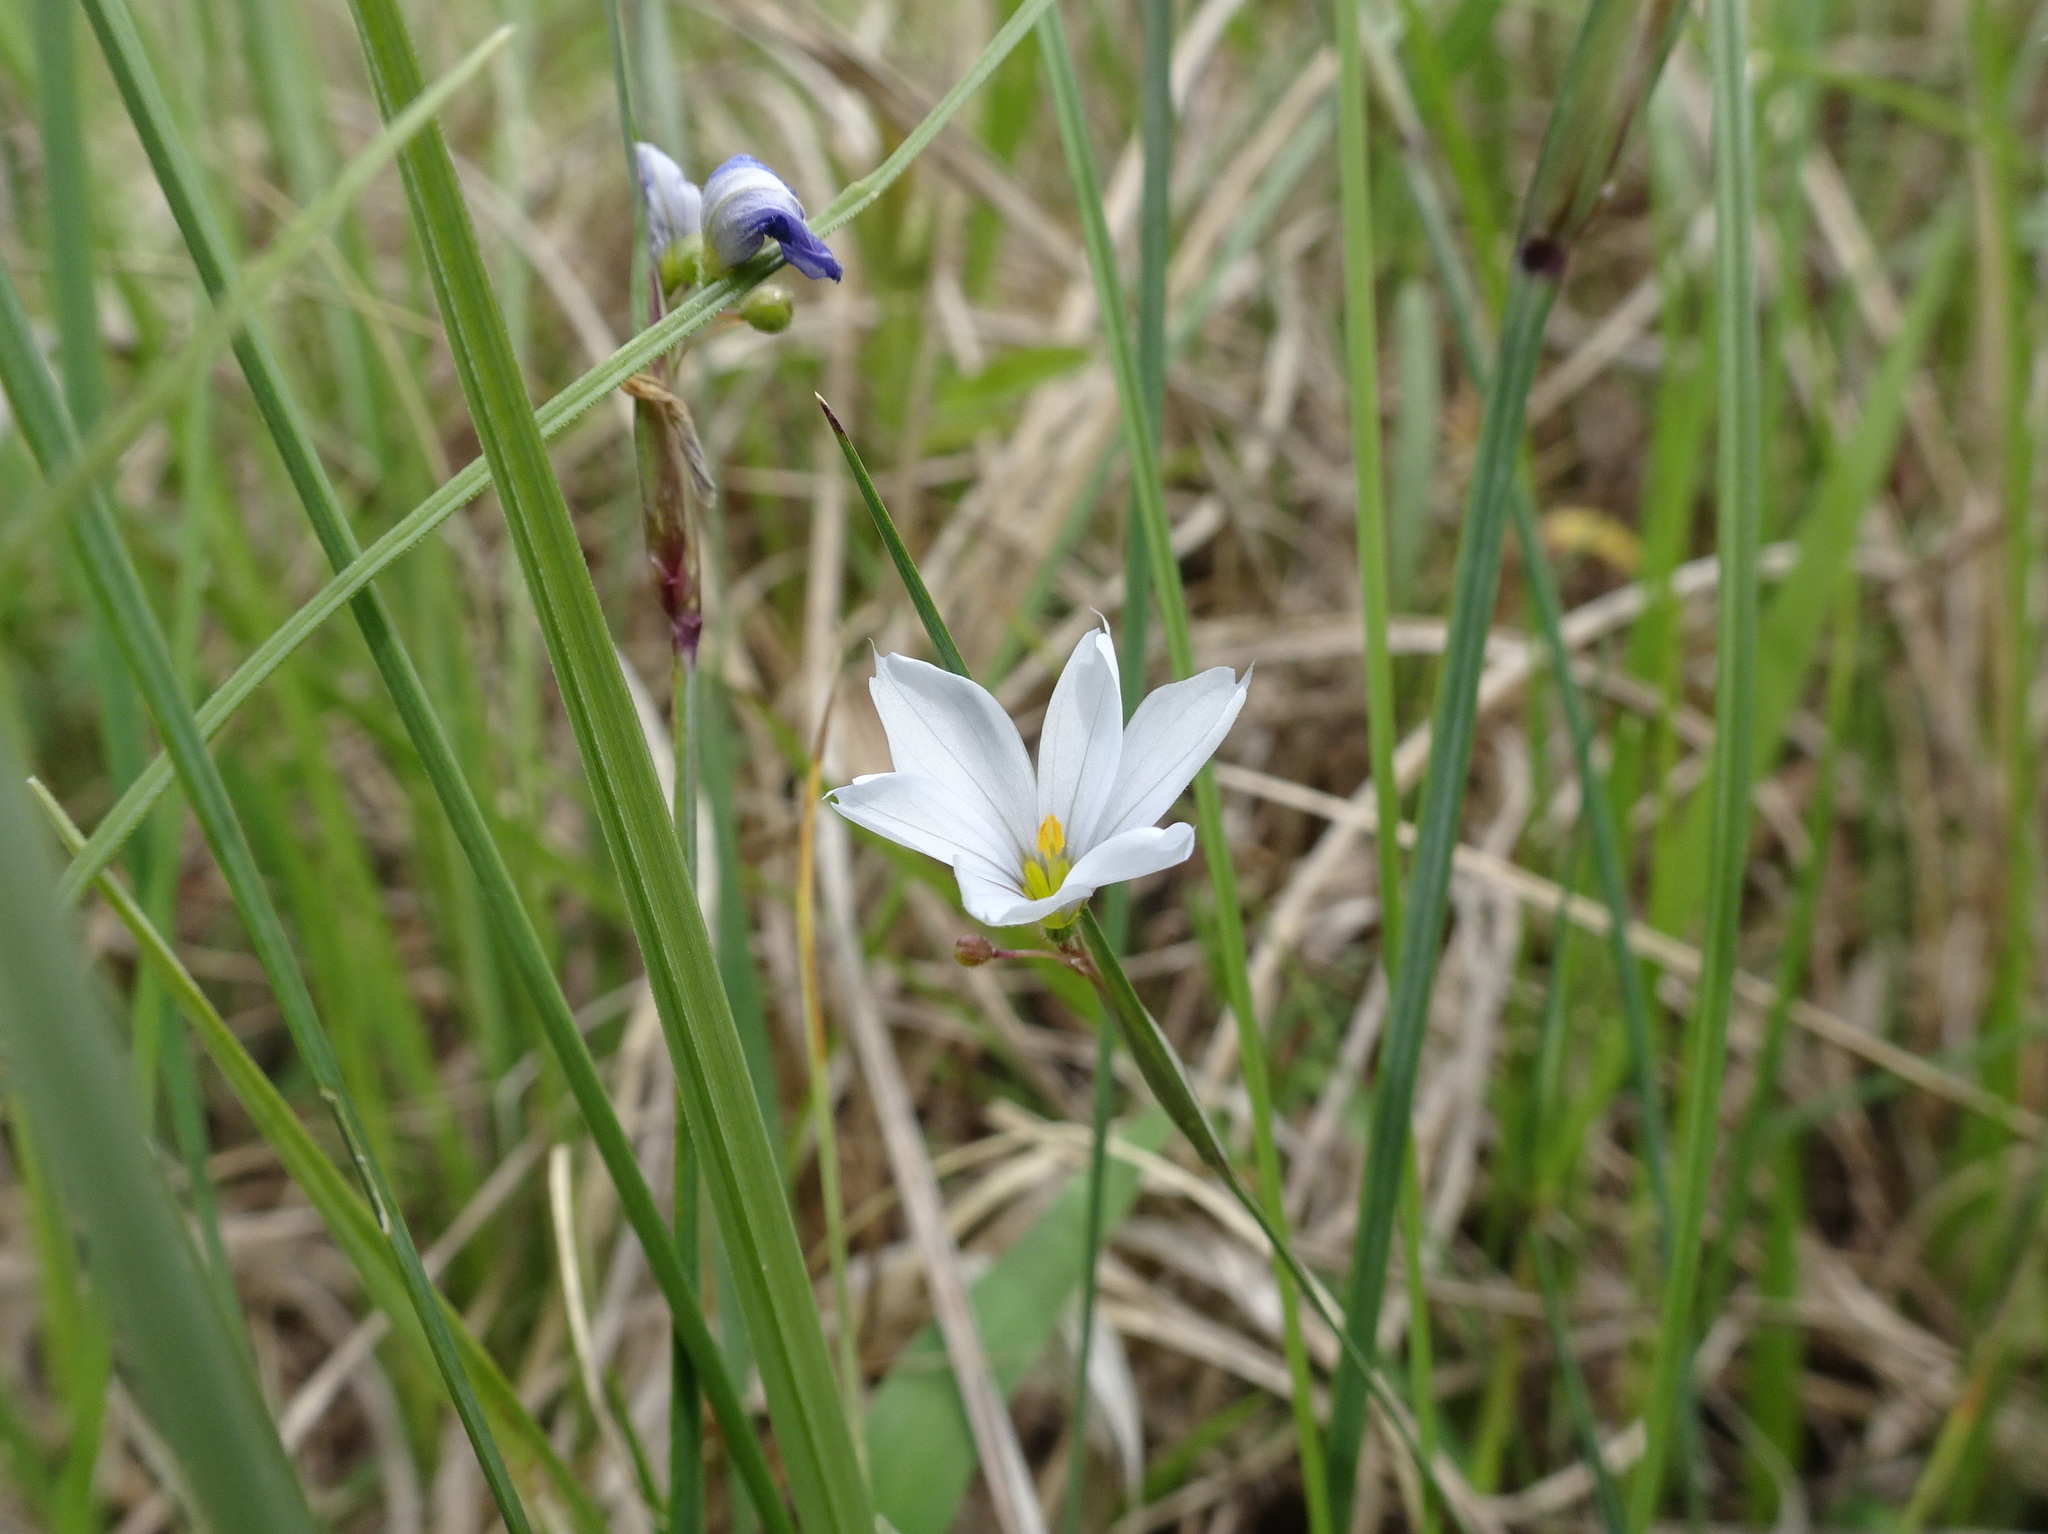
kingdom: Plantae
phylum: Tracheophyta
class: Liliopsida
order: Asparagales
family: Iridaceae
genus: Sisyrinchium
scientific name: Sisyrinchium campestre
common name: Prairie blue-eyed-grass
